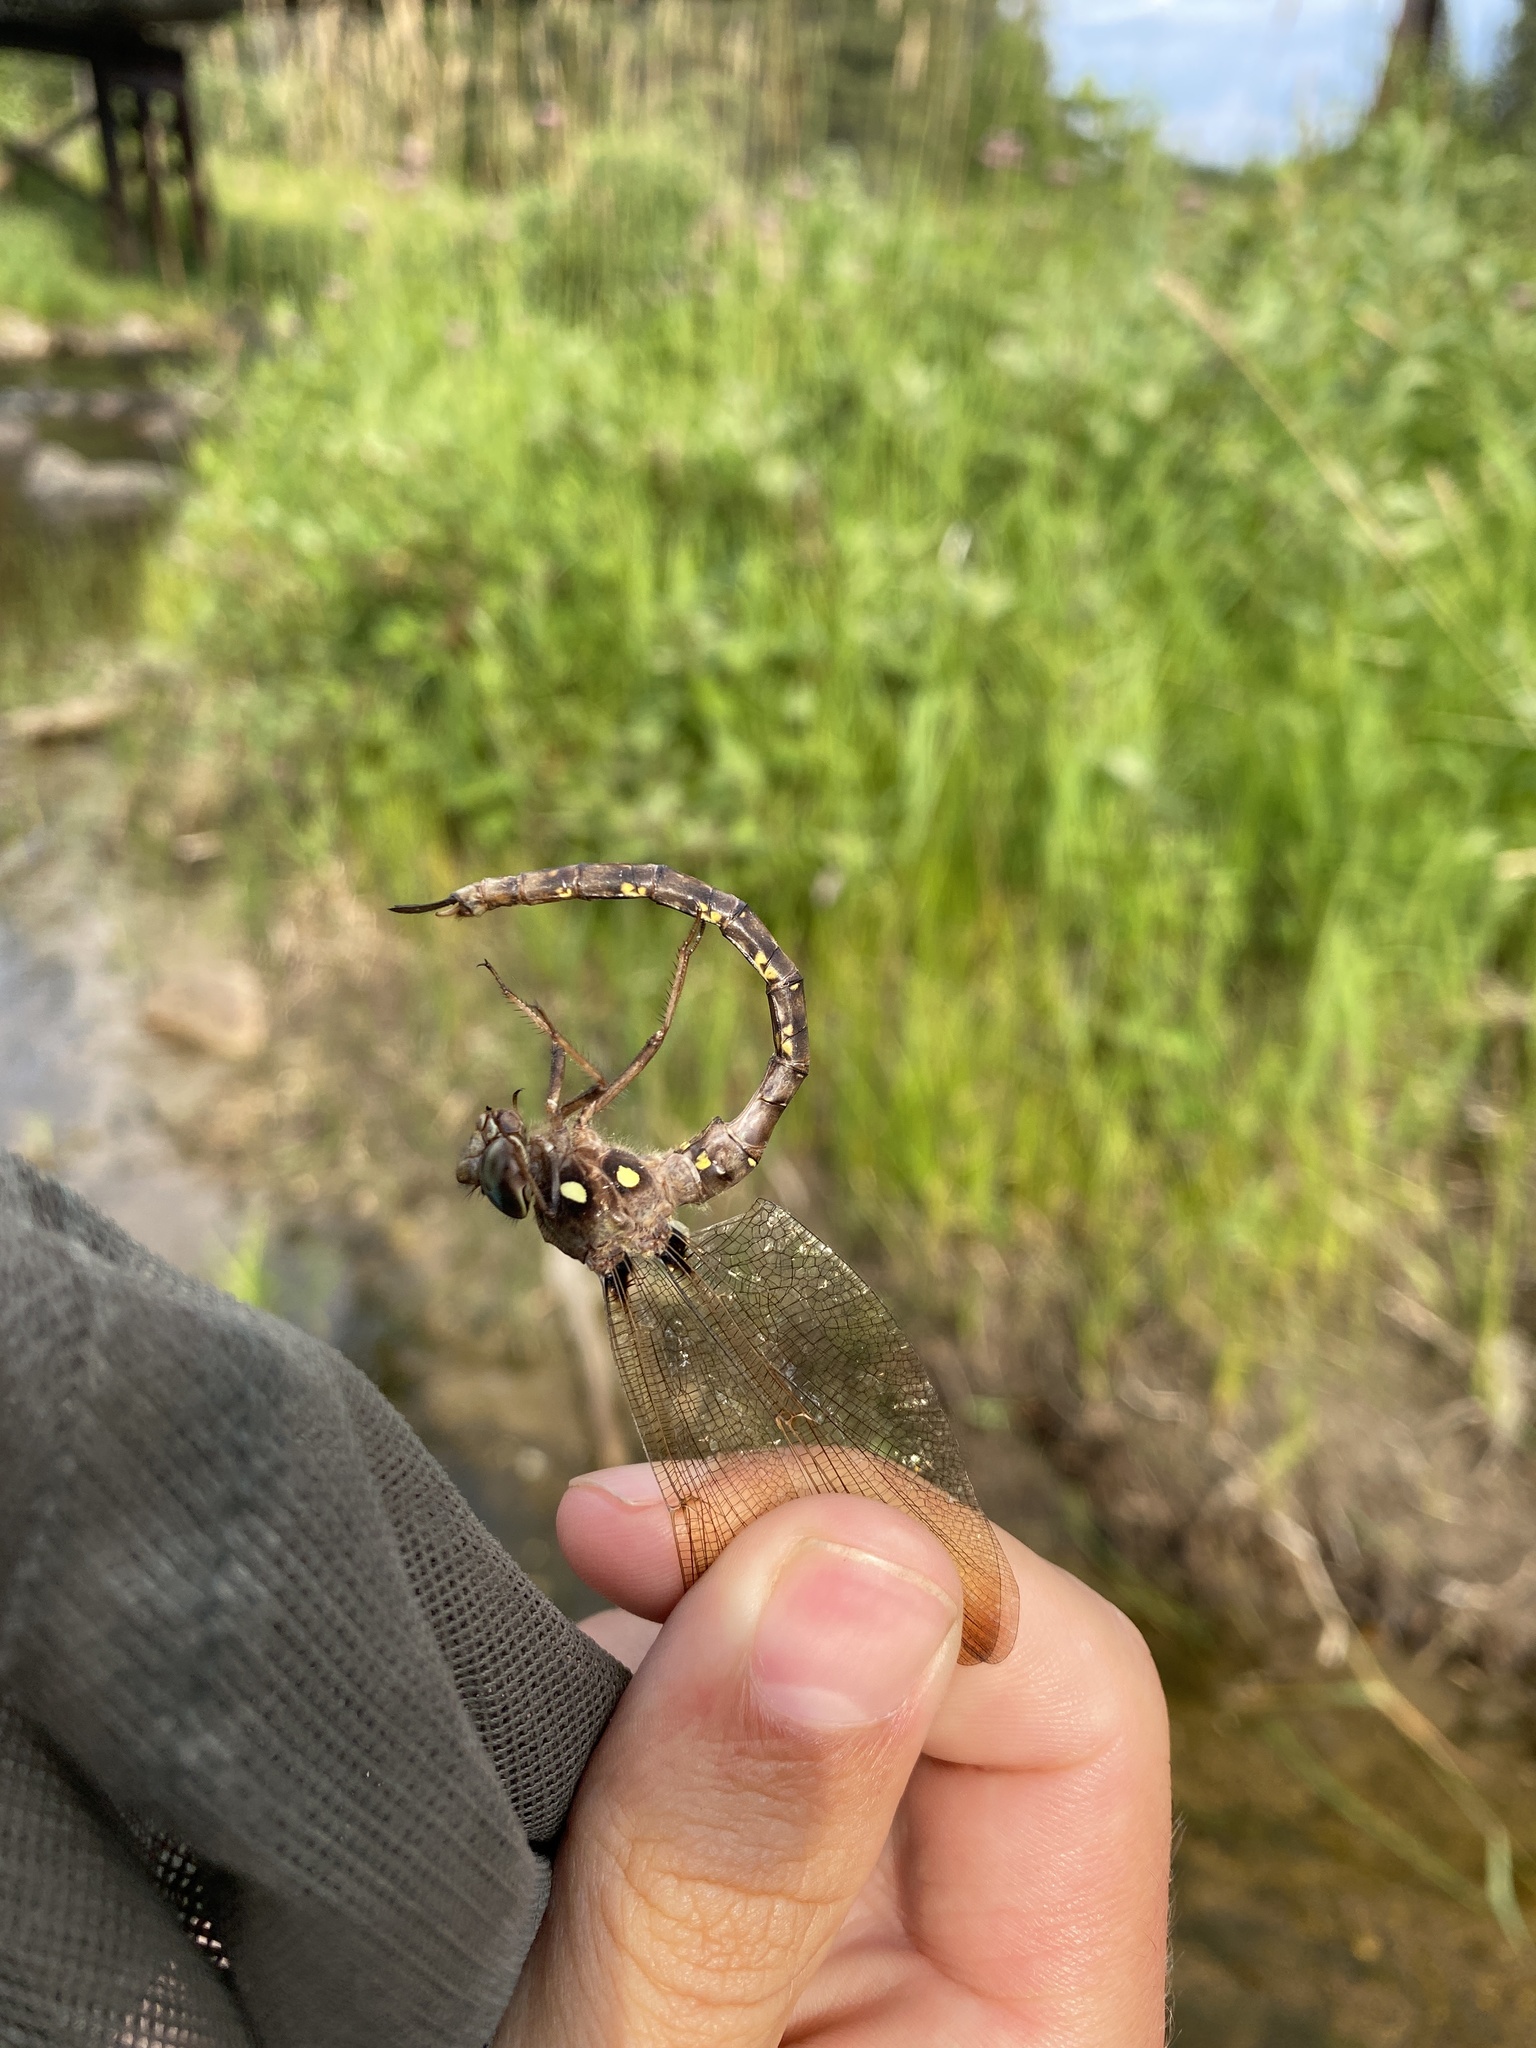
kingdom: Animalia
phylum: Arthropoda
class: Insecta
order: Odonata
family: Aeshnidae
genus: Boyeria
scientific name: Boyeria vinosa
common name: Fawn darner
